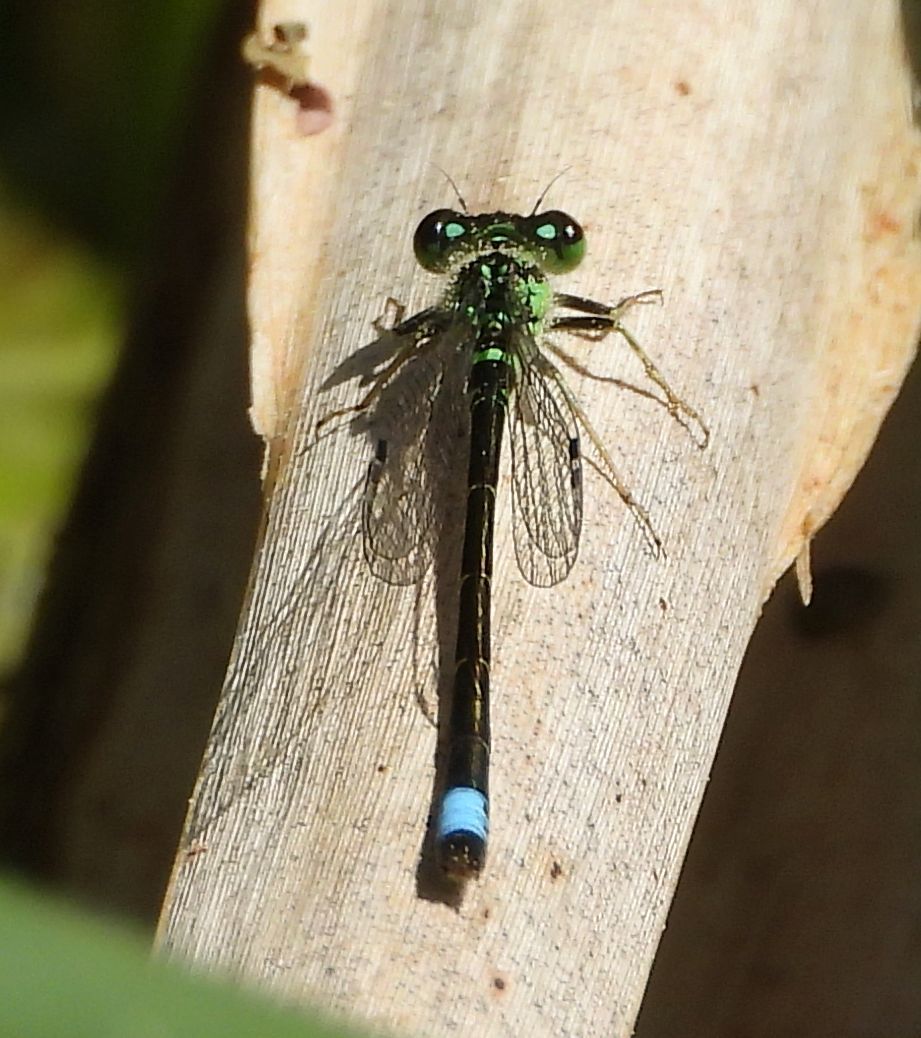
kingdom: Animalia
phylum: Arthropoda
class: Insecta
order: Odonata
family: Coenagrionidae
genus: Ischnura
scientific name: Ischnura verticalis
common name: Eastern forktail
